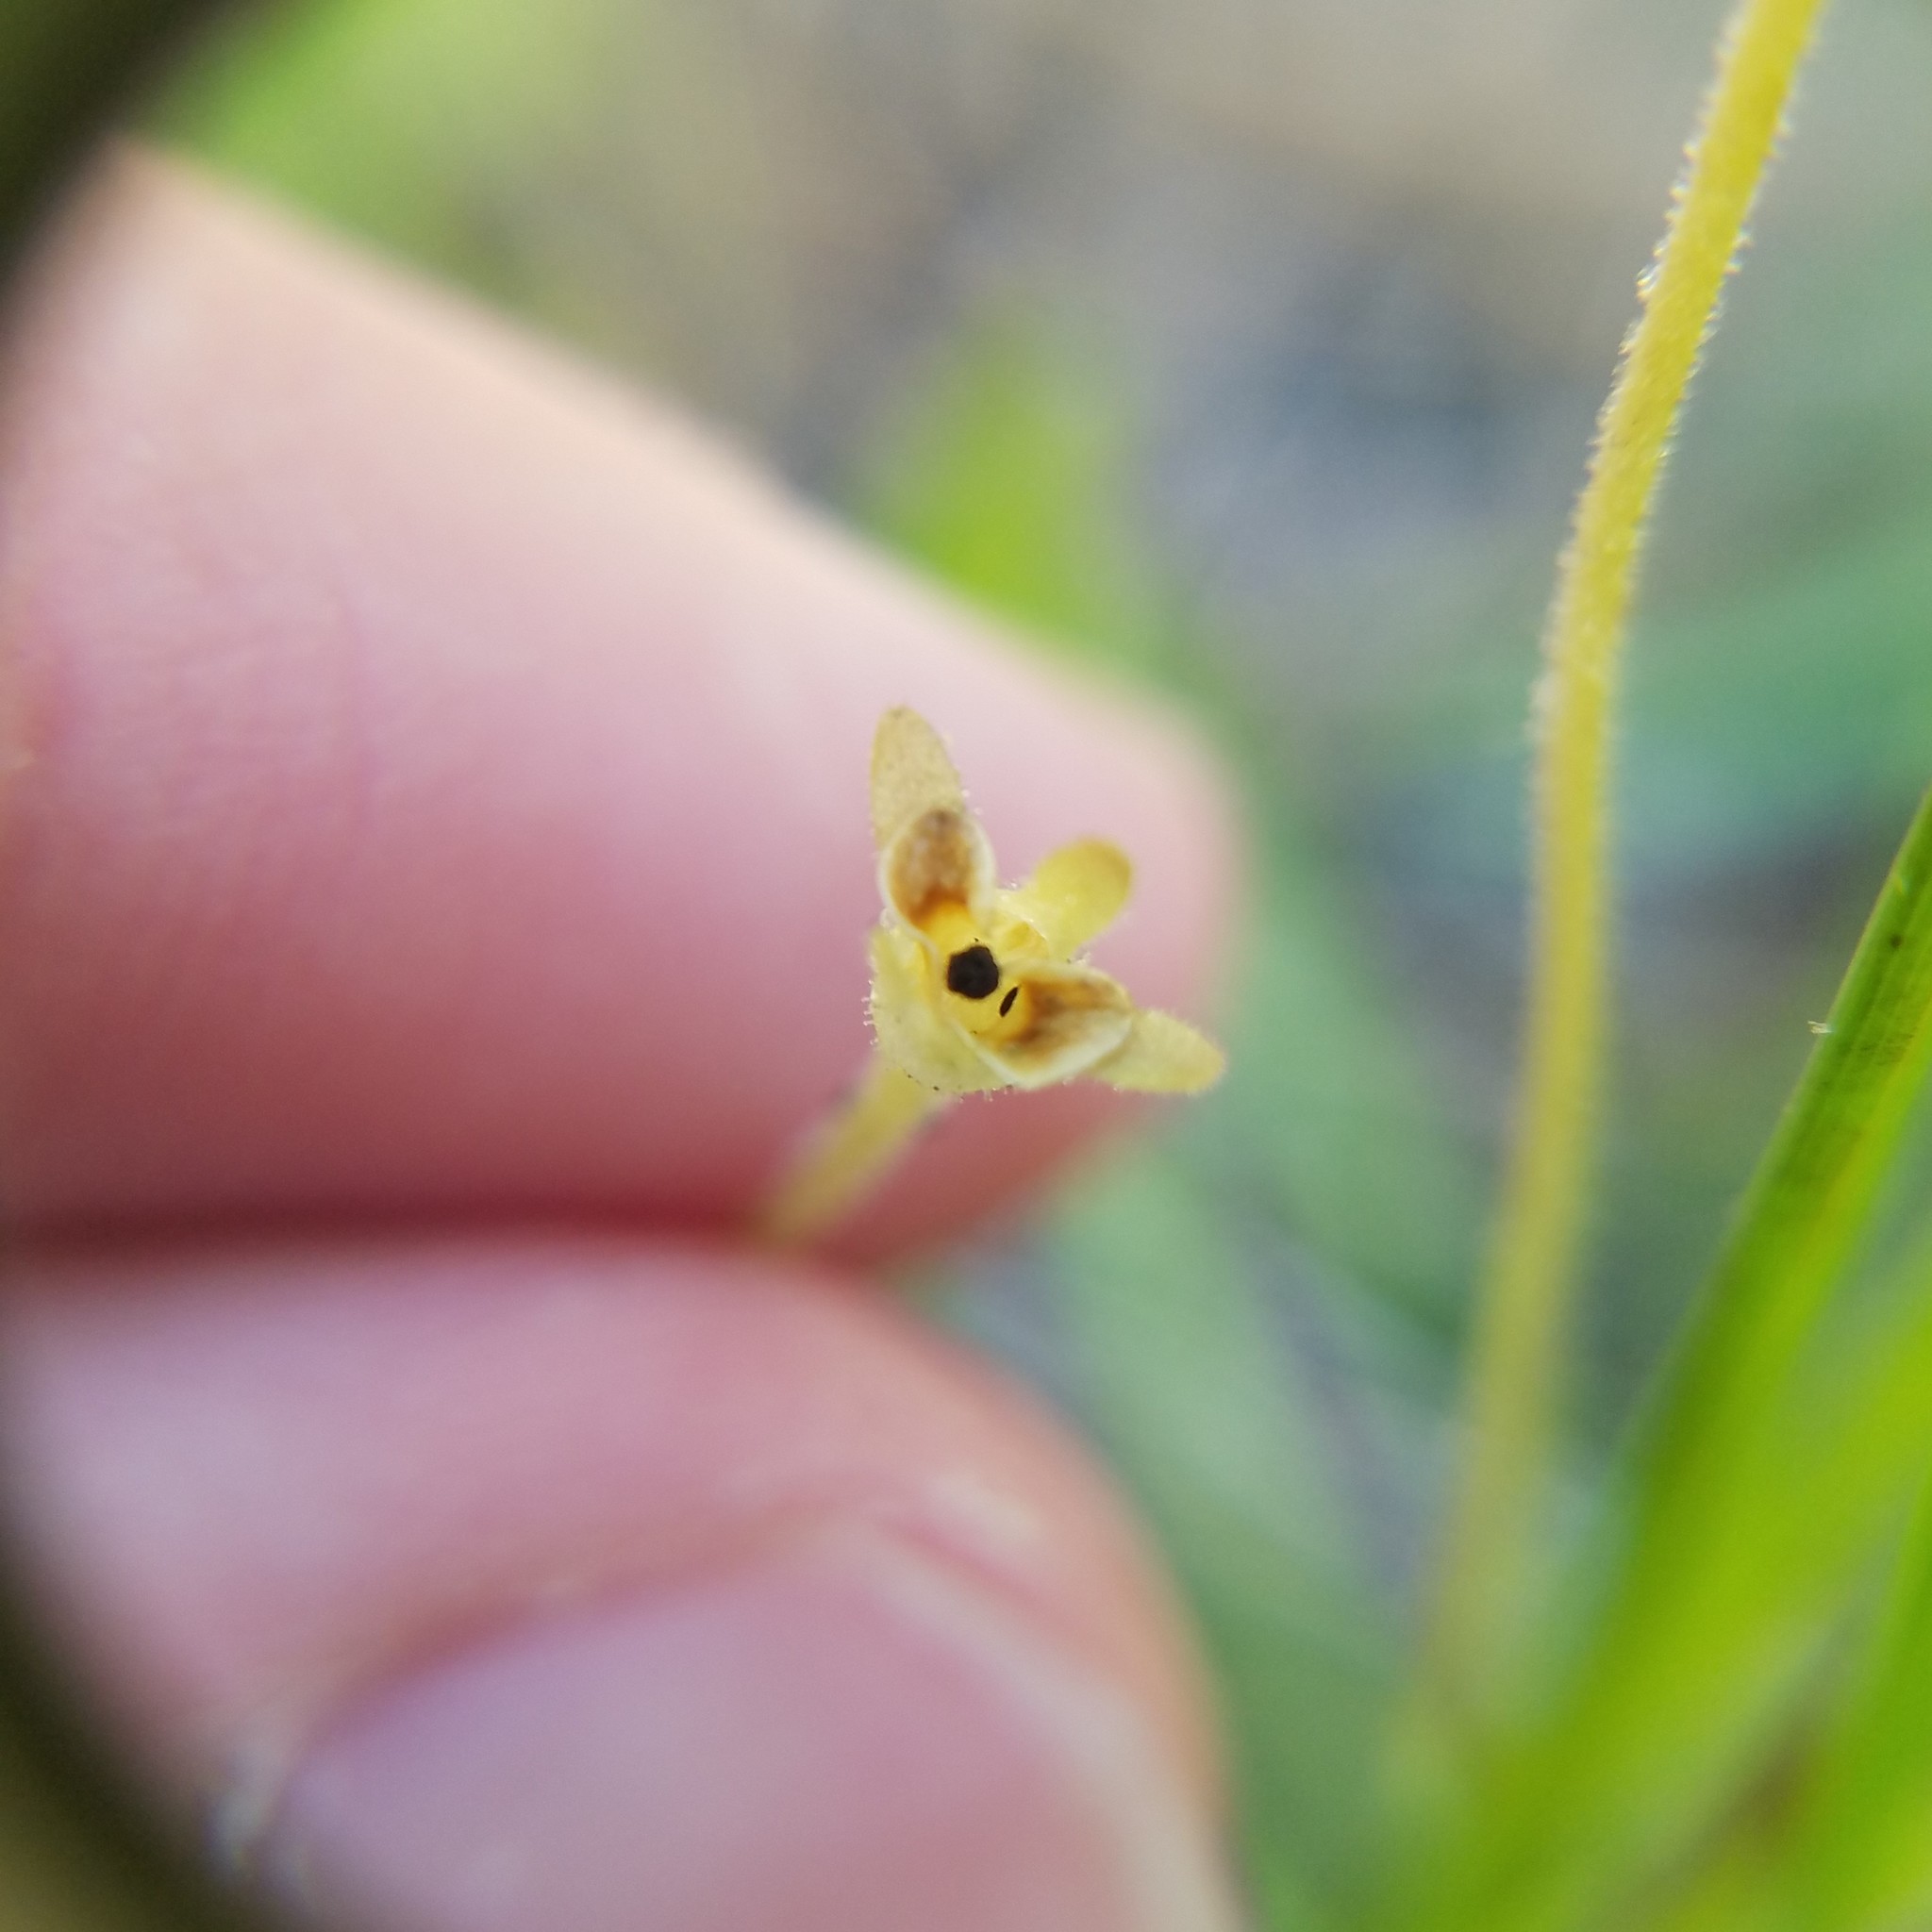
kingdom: Plantae
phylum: Tracheophyta
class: Magnoliopsida
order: Lamiales
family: Lentibulariaceae
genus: Pinguicula
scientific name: Pinguicula pumila
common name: Small butterwort
